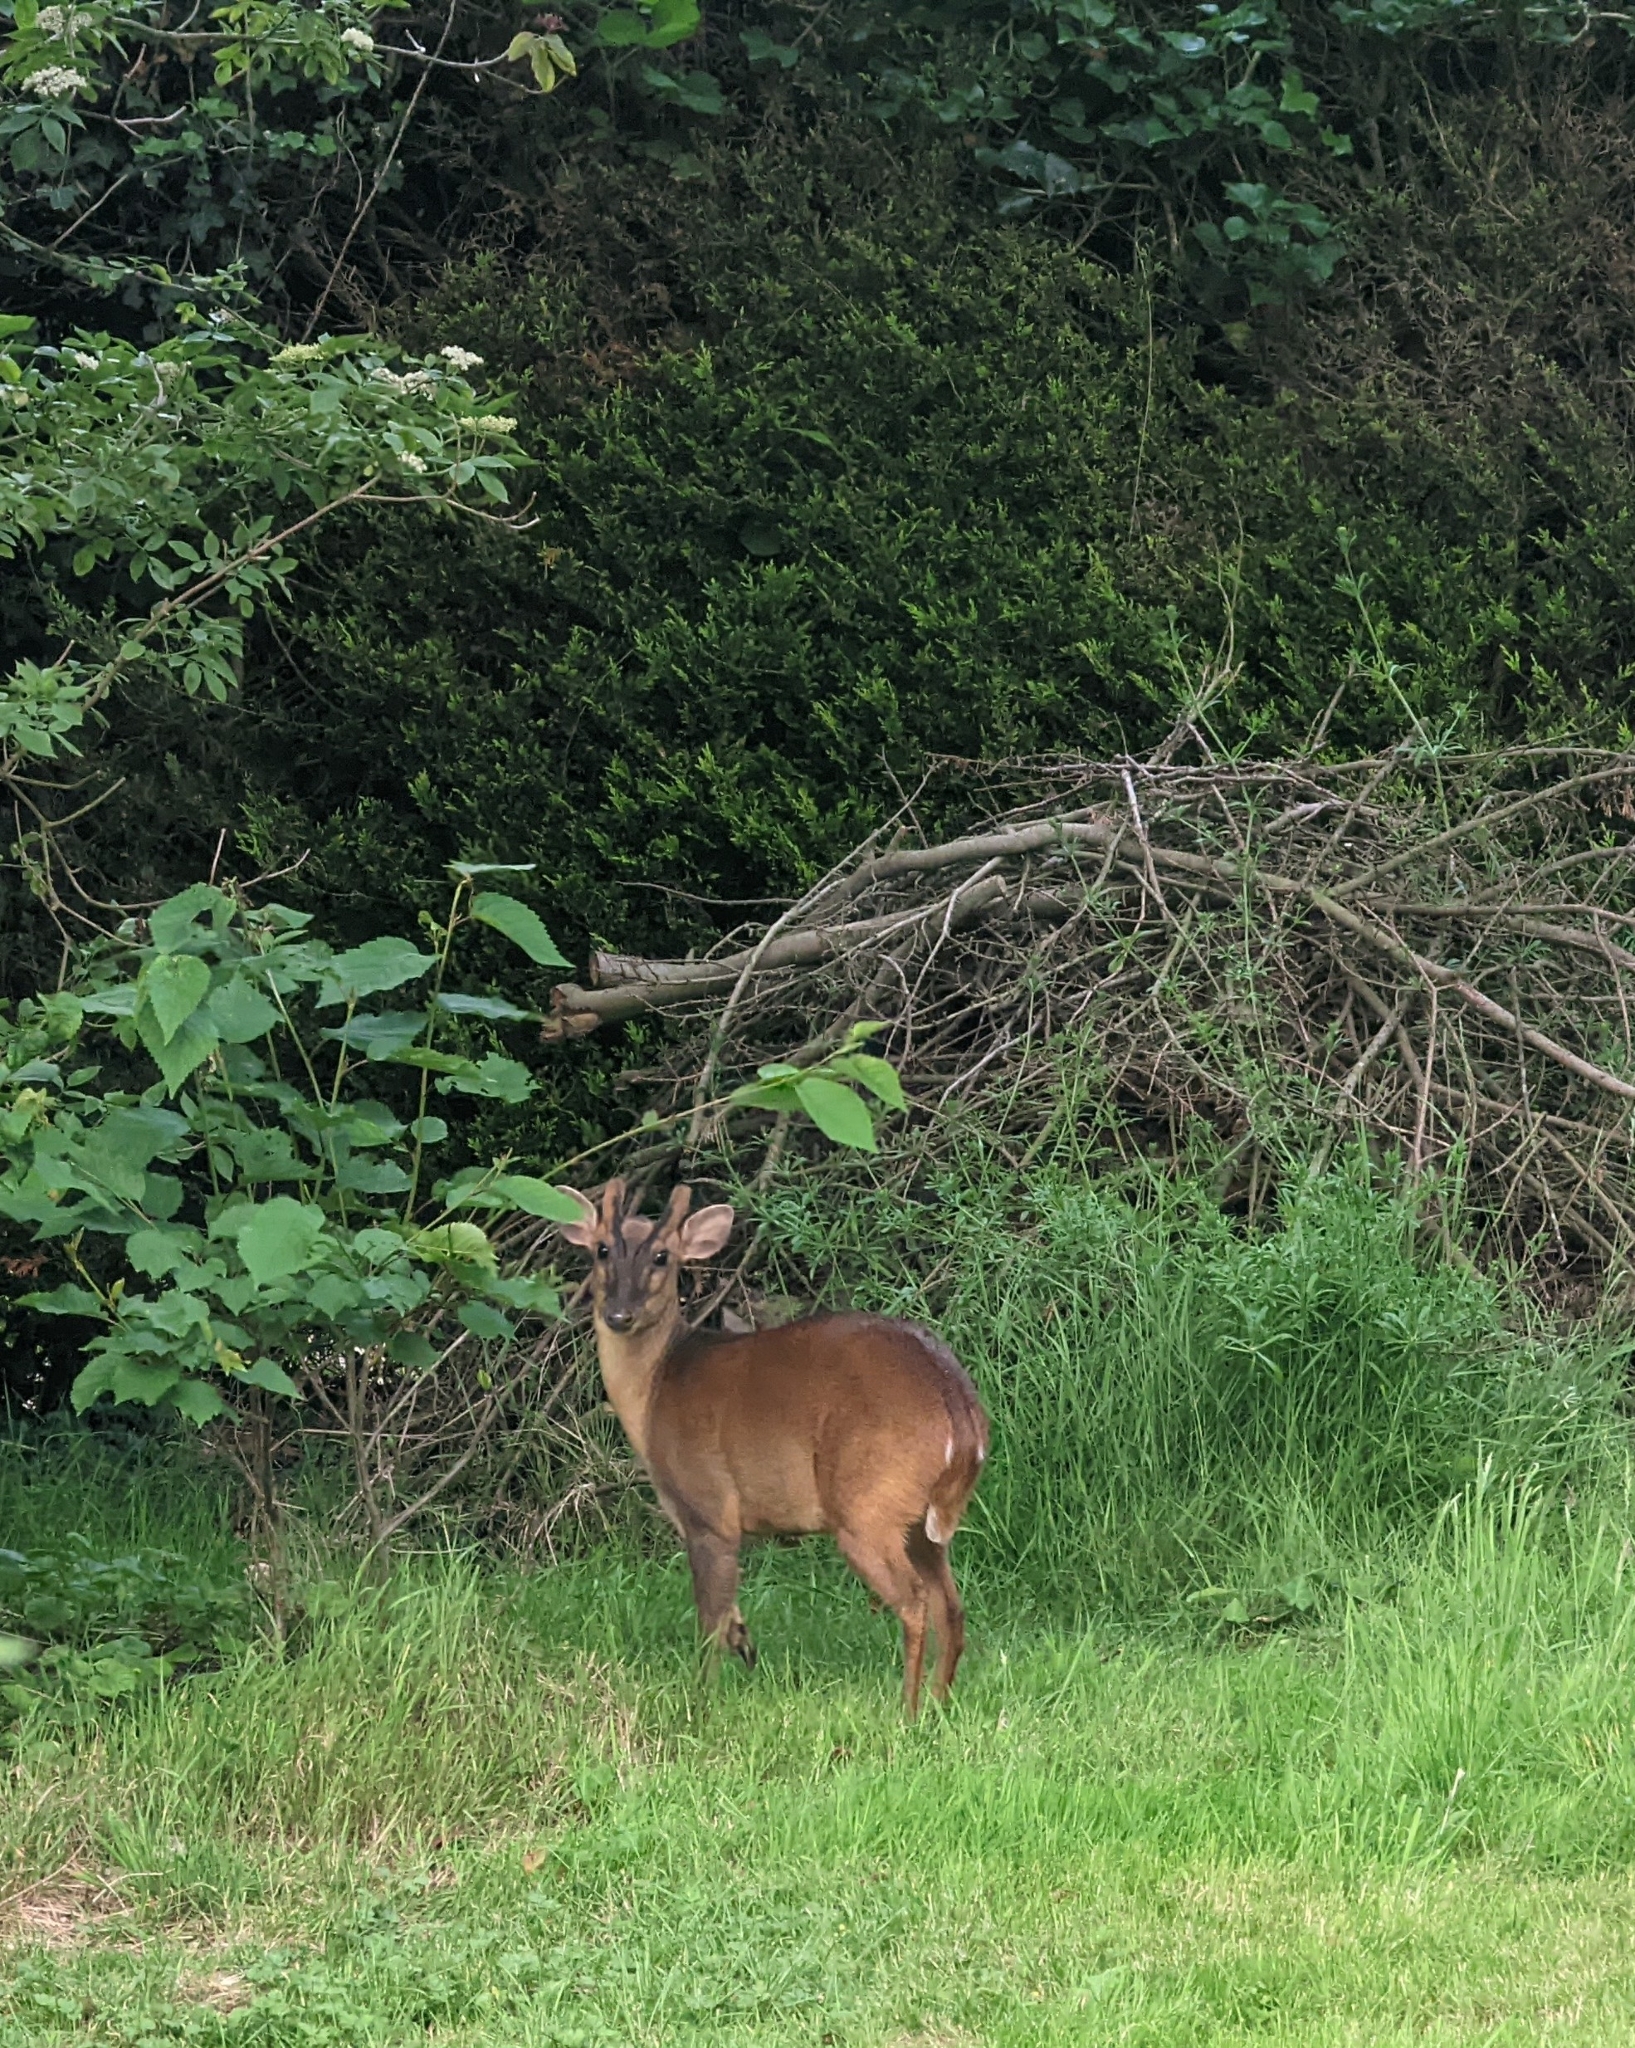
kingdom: Animalia
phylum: Chordata
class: Mammalia
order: Artiodactyla
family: Cervidae
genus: Muntiacus
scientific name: Muntiacus reevesi
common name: Reeves' muntjac
